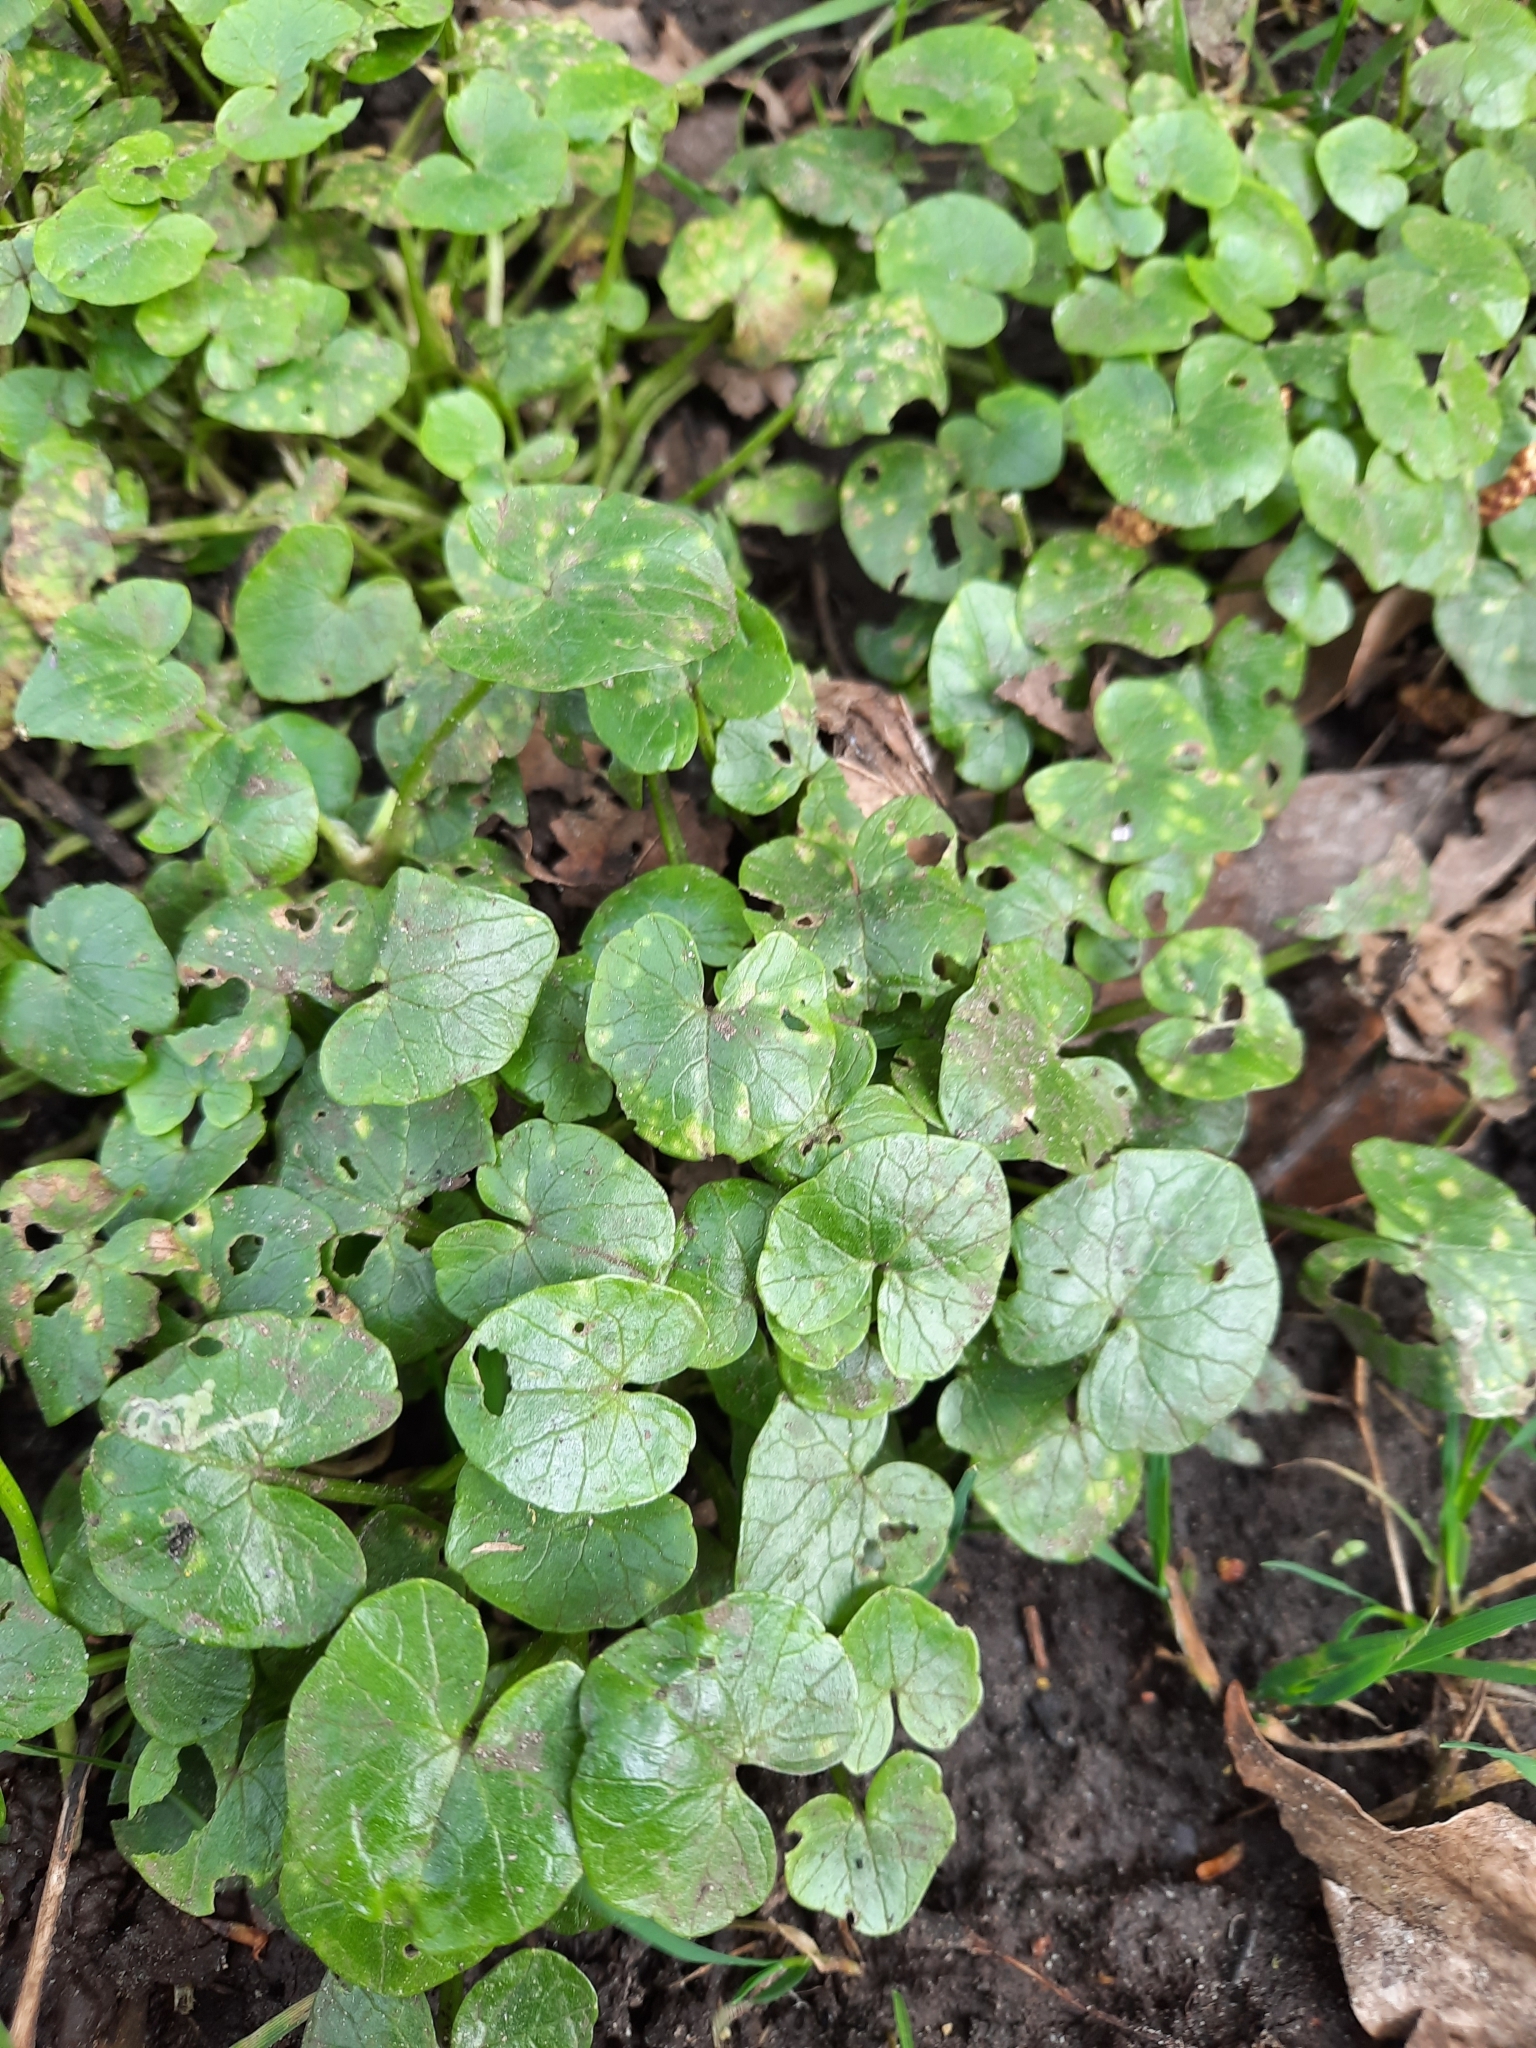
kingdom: Plantae
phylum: Tracheophyta
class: Magnoliopsida
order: Ranunculales
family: Ranunculaceae
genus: Ficaria
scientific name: Ficaria verna
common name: Lesser celandine
